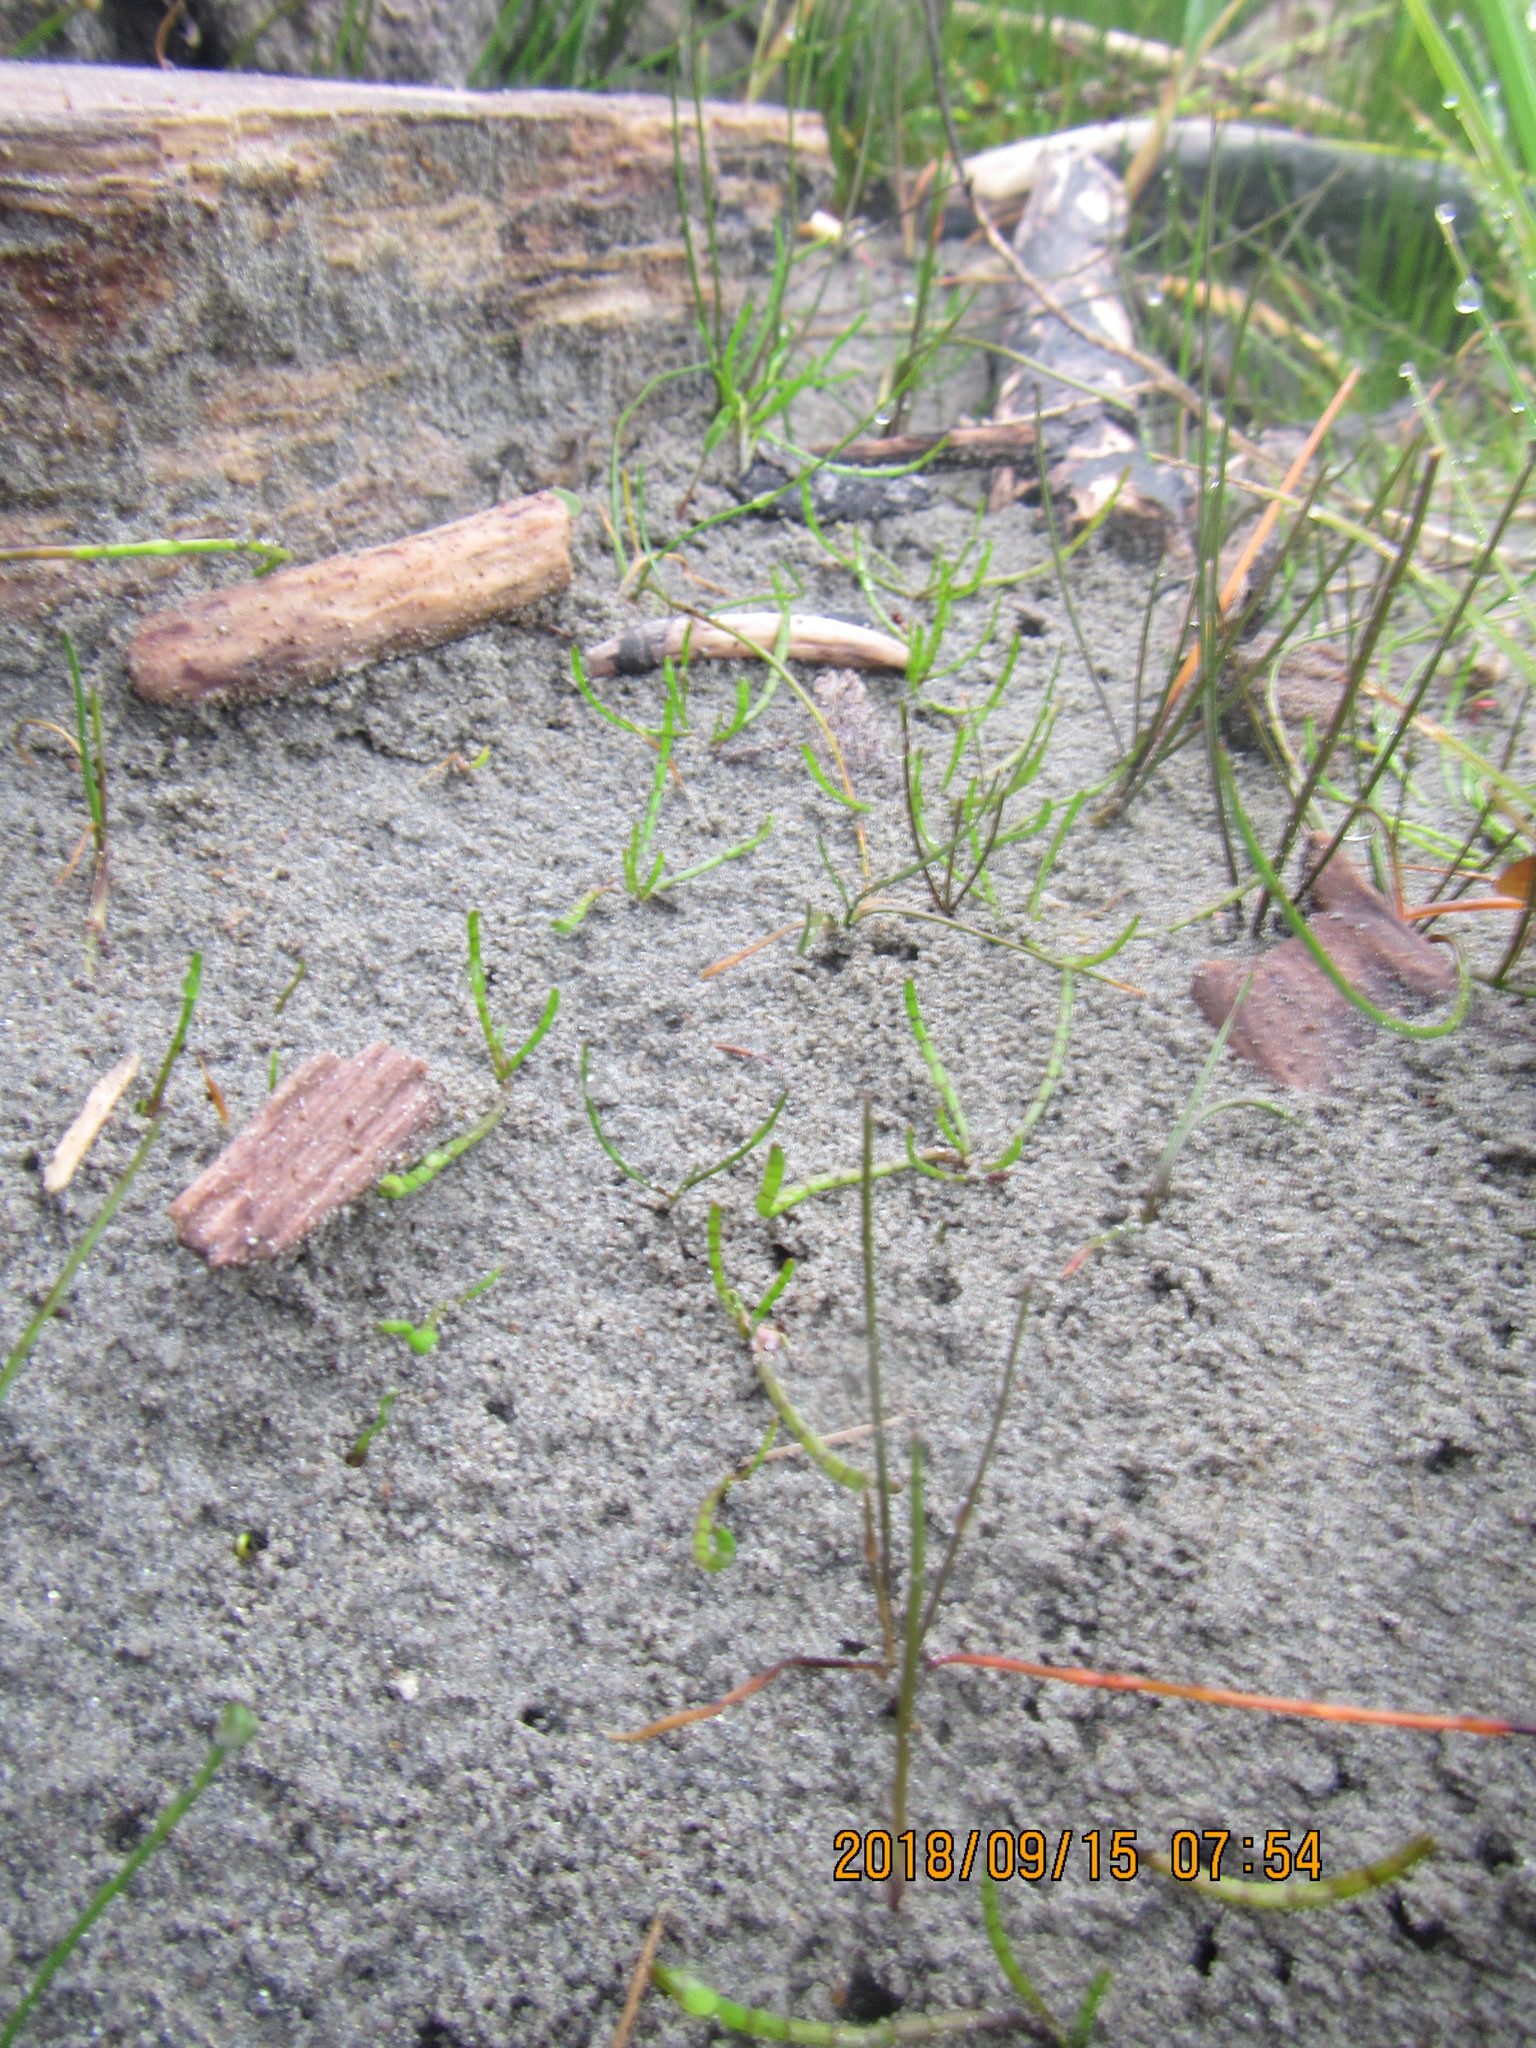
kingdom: Plantae
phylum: Tracheophyta
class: Magnoliopsida
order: Apiales
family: Apiaceae
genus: Lilaeopsis
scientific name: Lilaeopsis novae-zelandiae
